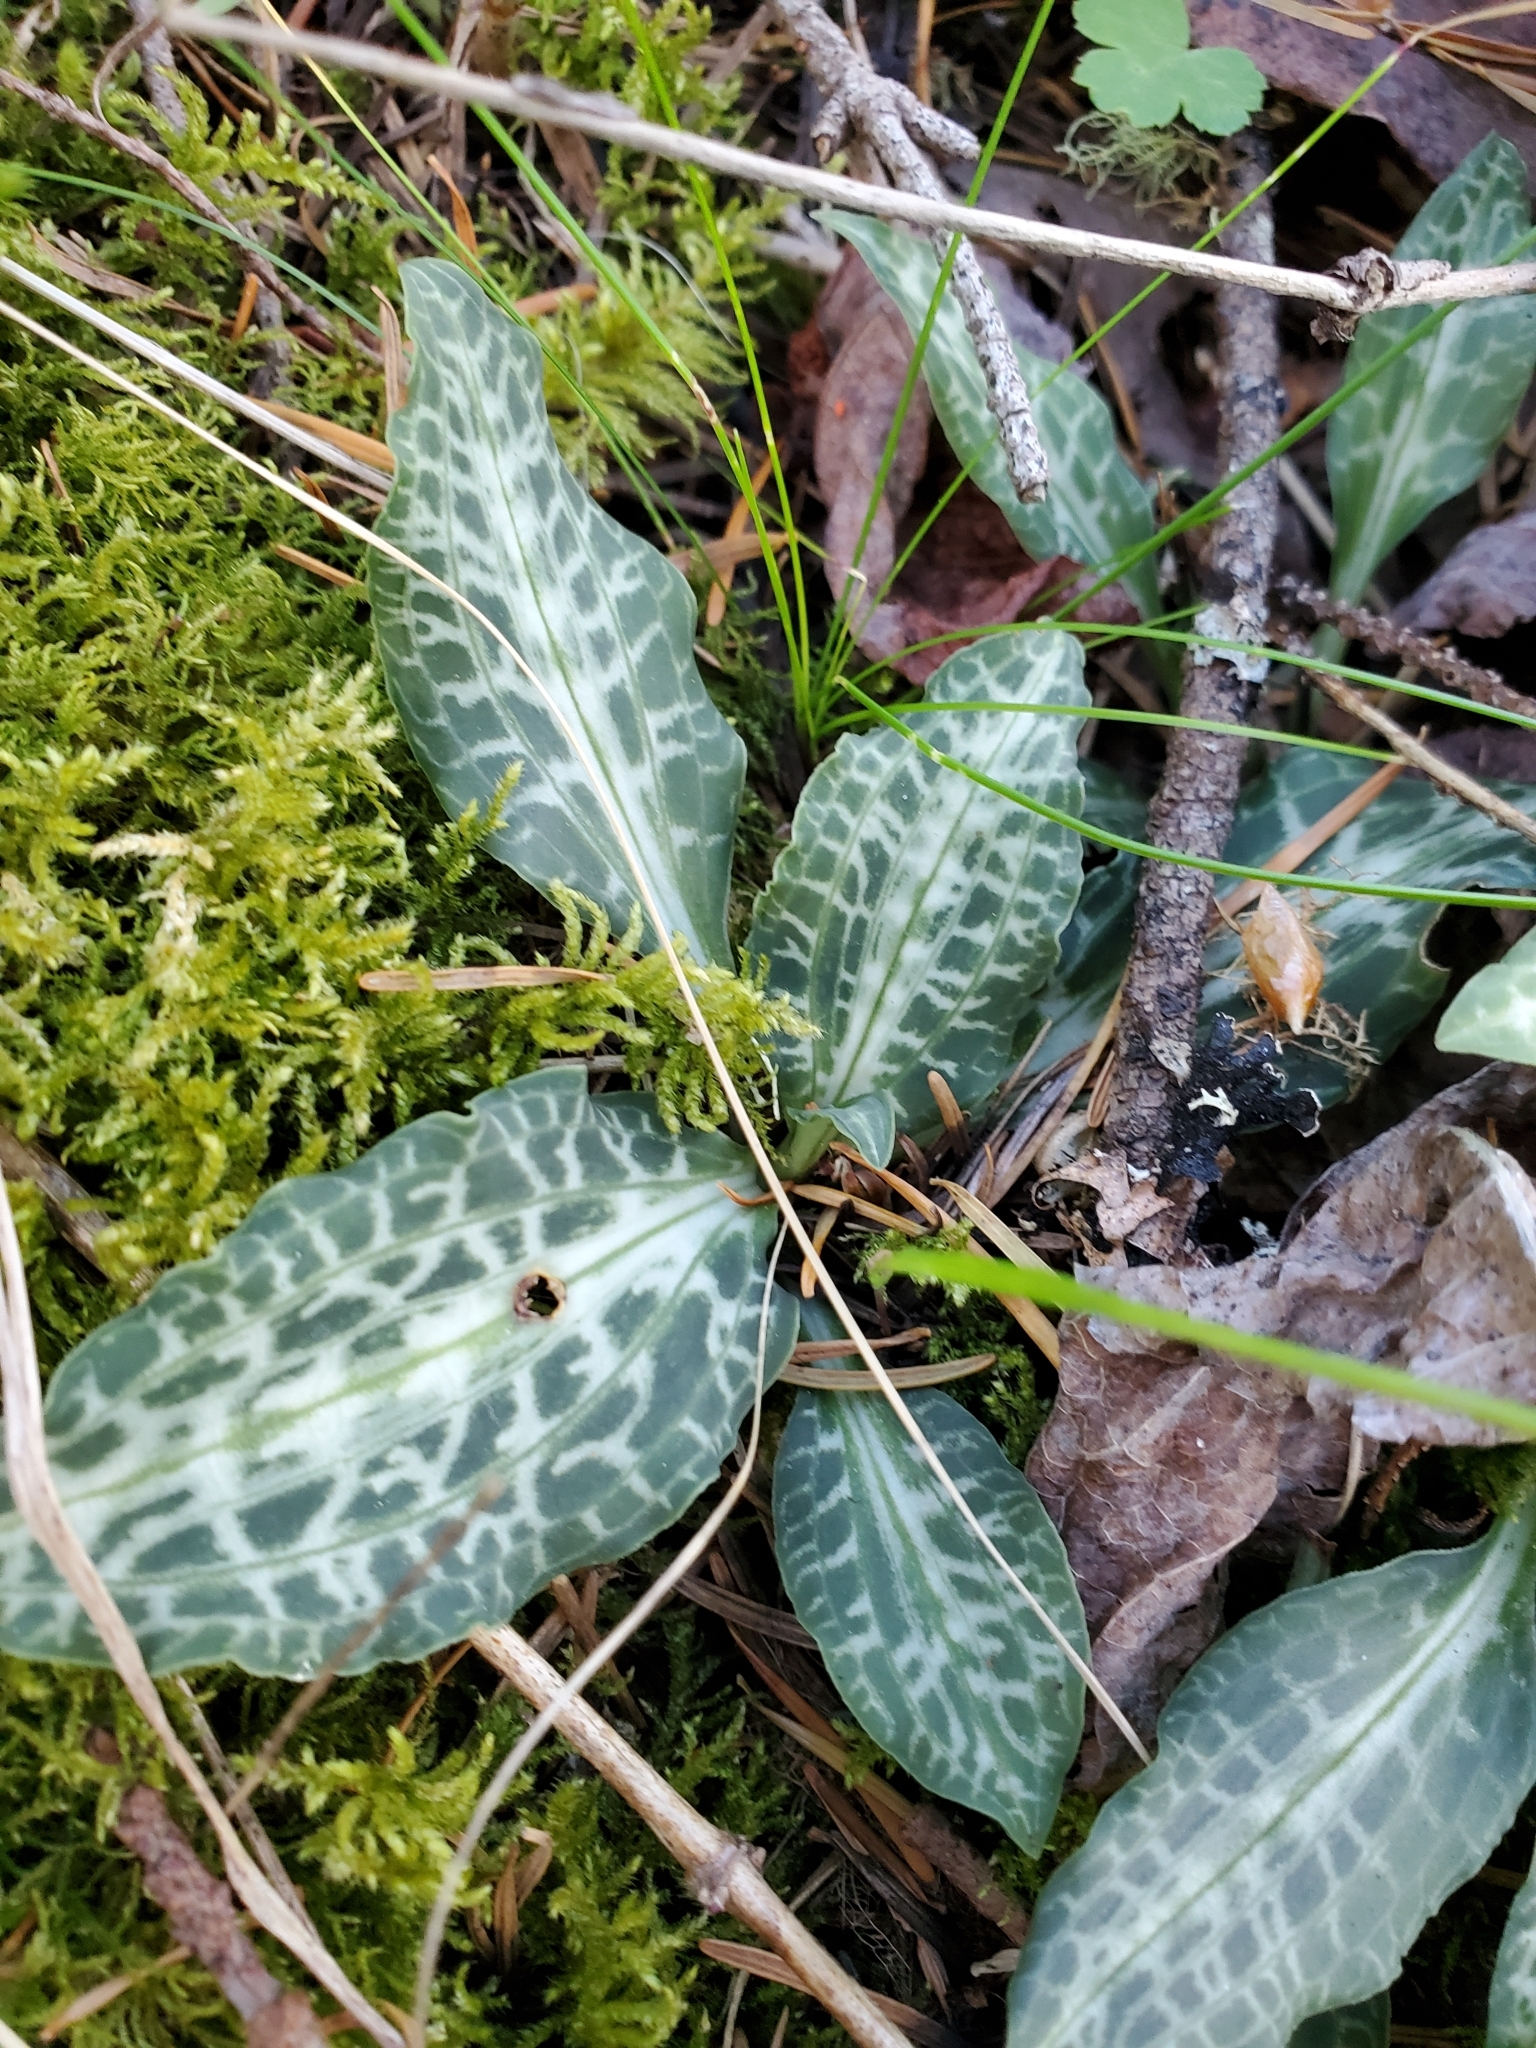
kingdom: Plantae
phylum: Tracheophyta
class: Liliopsida
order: Asparagales
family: Orchidaceae
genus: Goodyera
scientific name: Goodyera oblongifolia
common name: Giant rattlesnake-plantain
